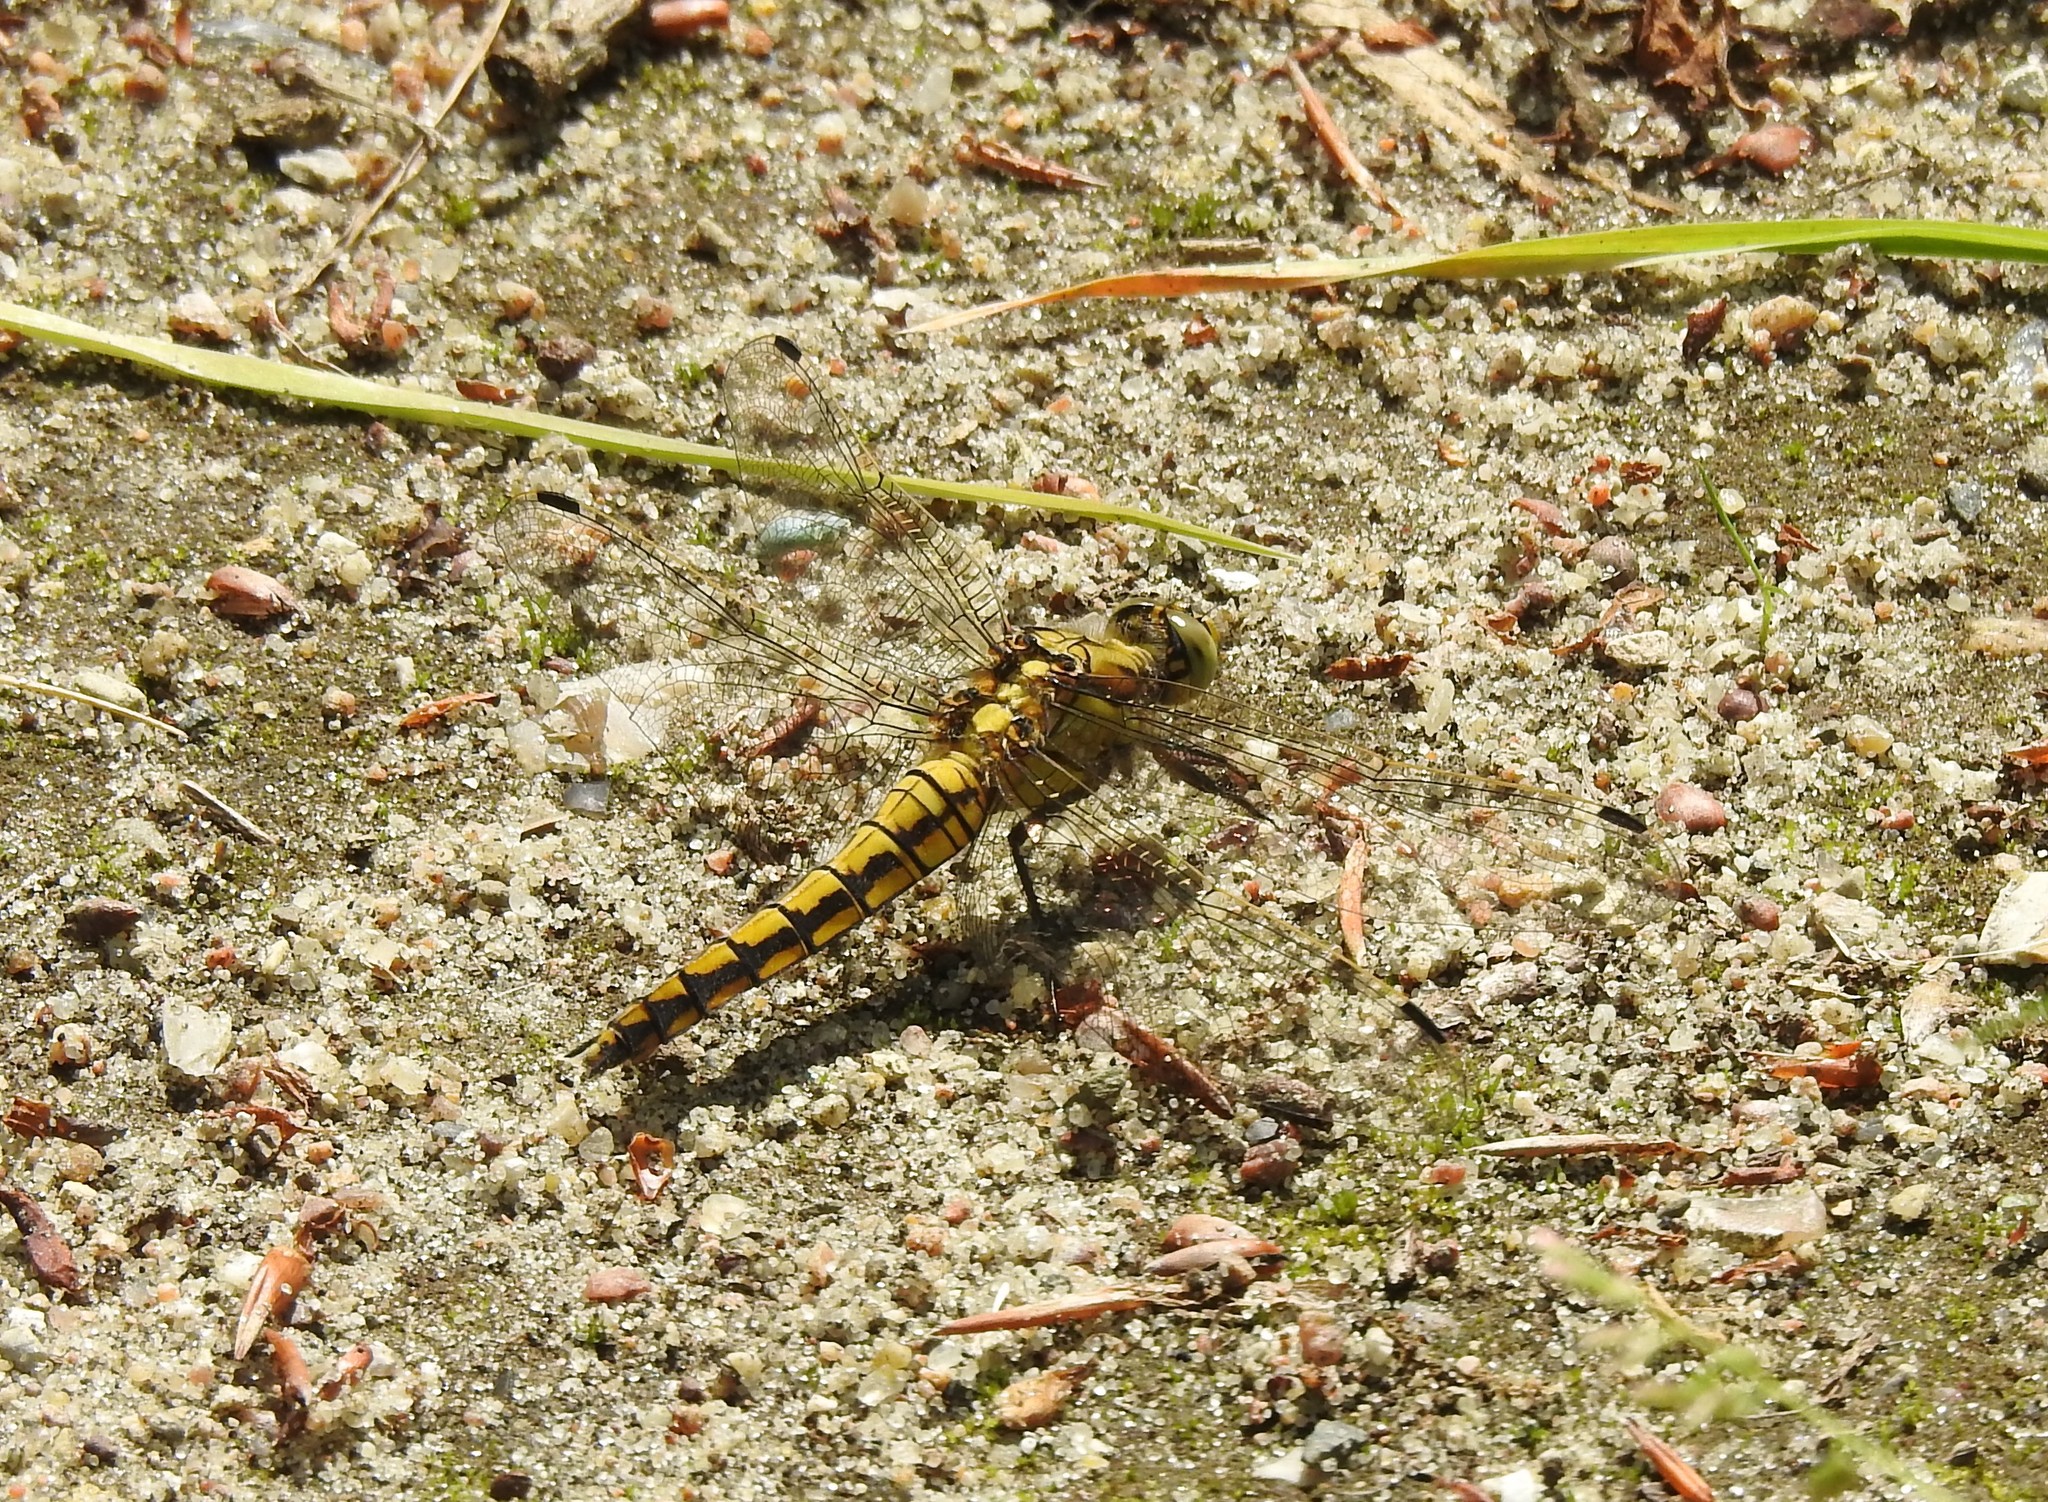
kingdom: Animalia
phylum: Arthropoda
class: Insecta
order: Odonata
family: Libellulidae
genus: Orthetrum
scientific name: Orthetrum cancellatum
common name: Black-tailed skimmer
